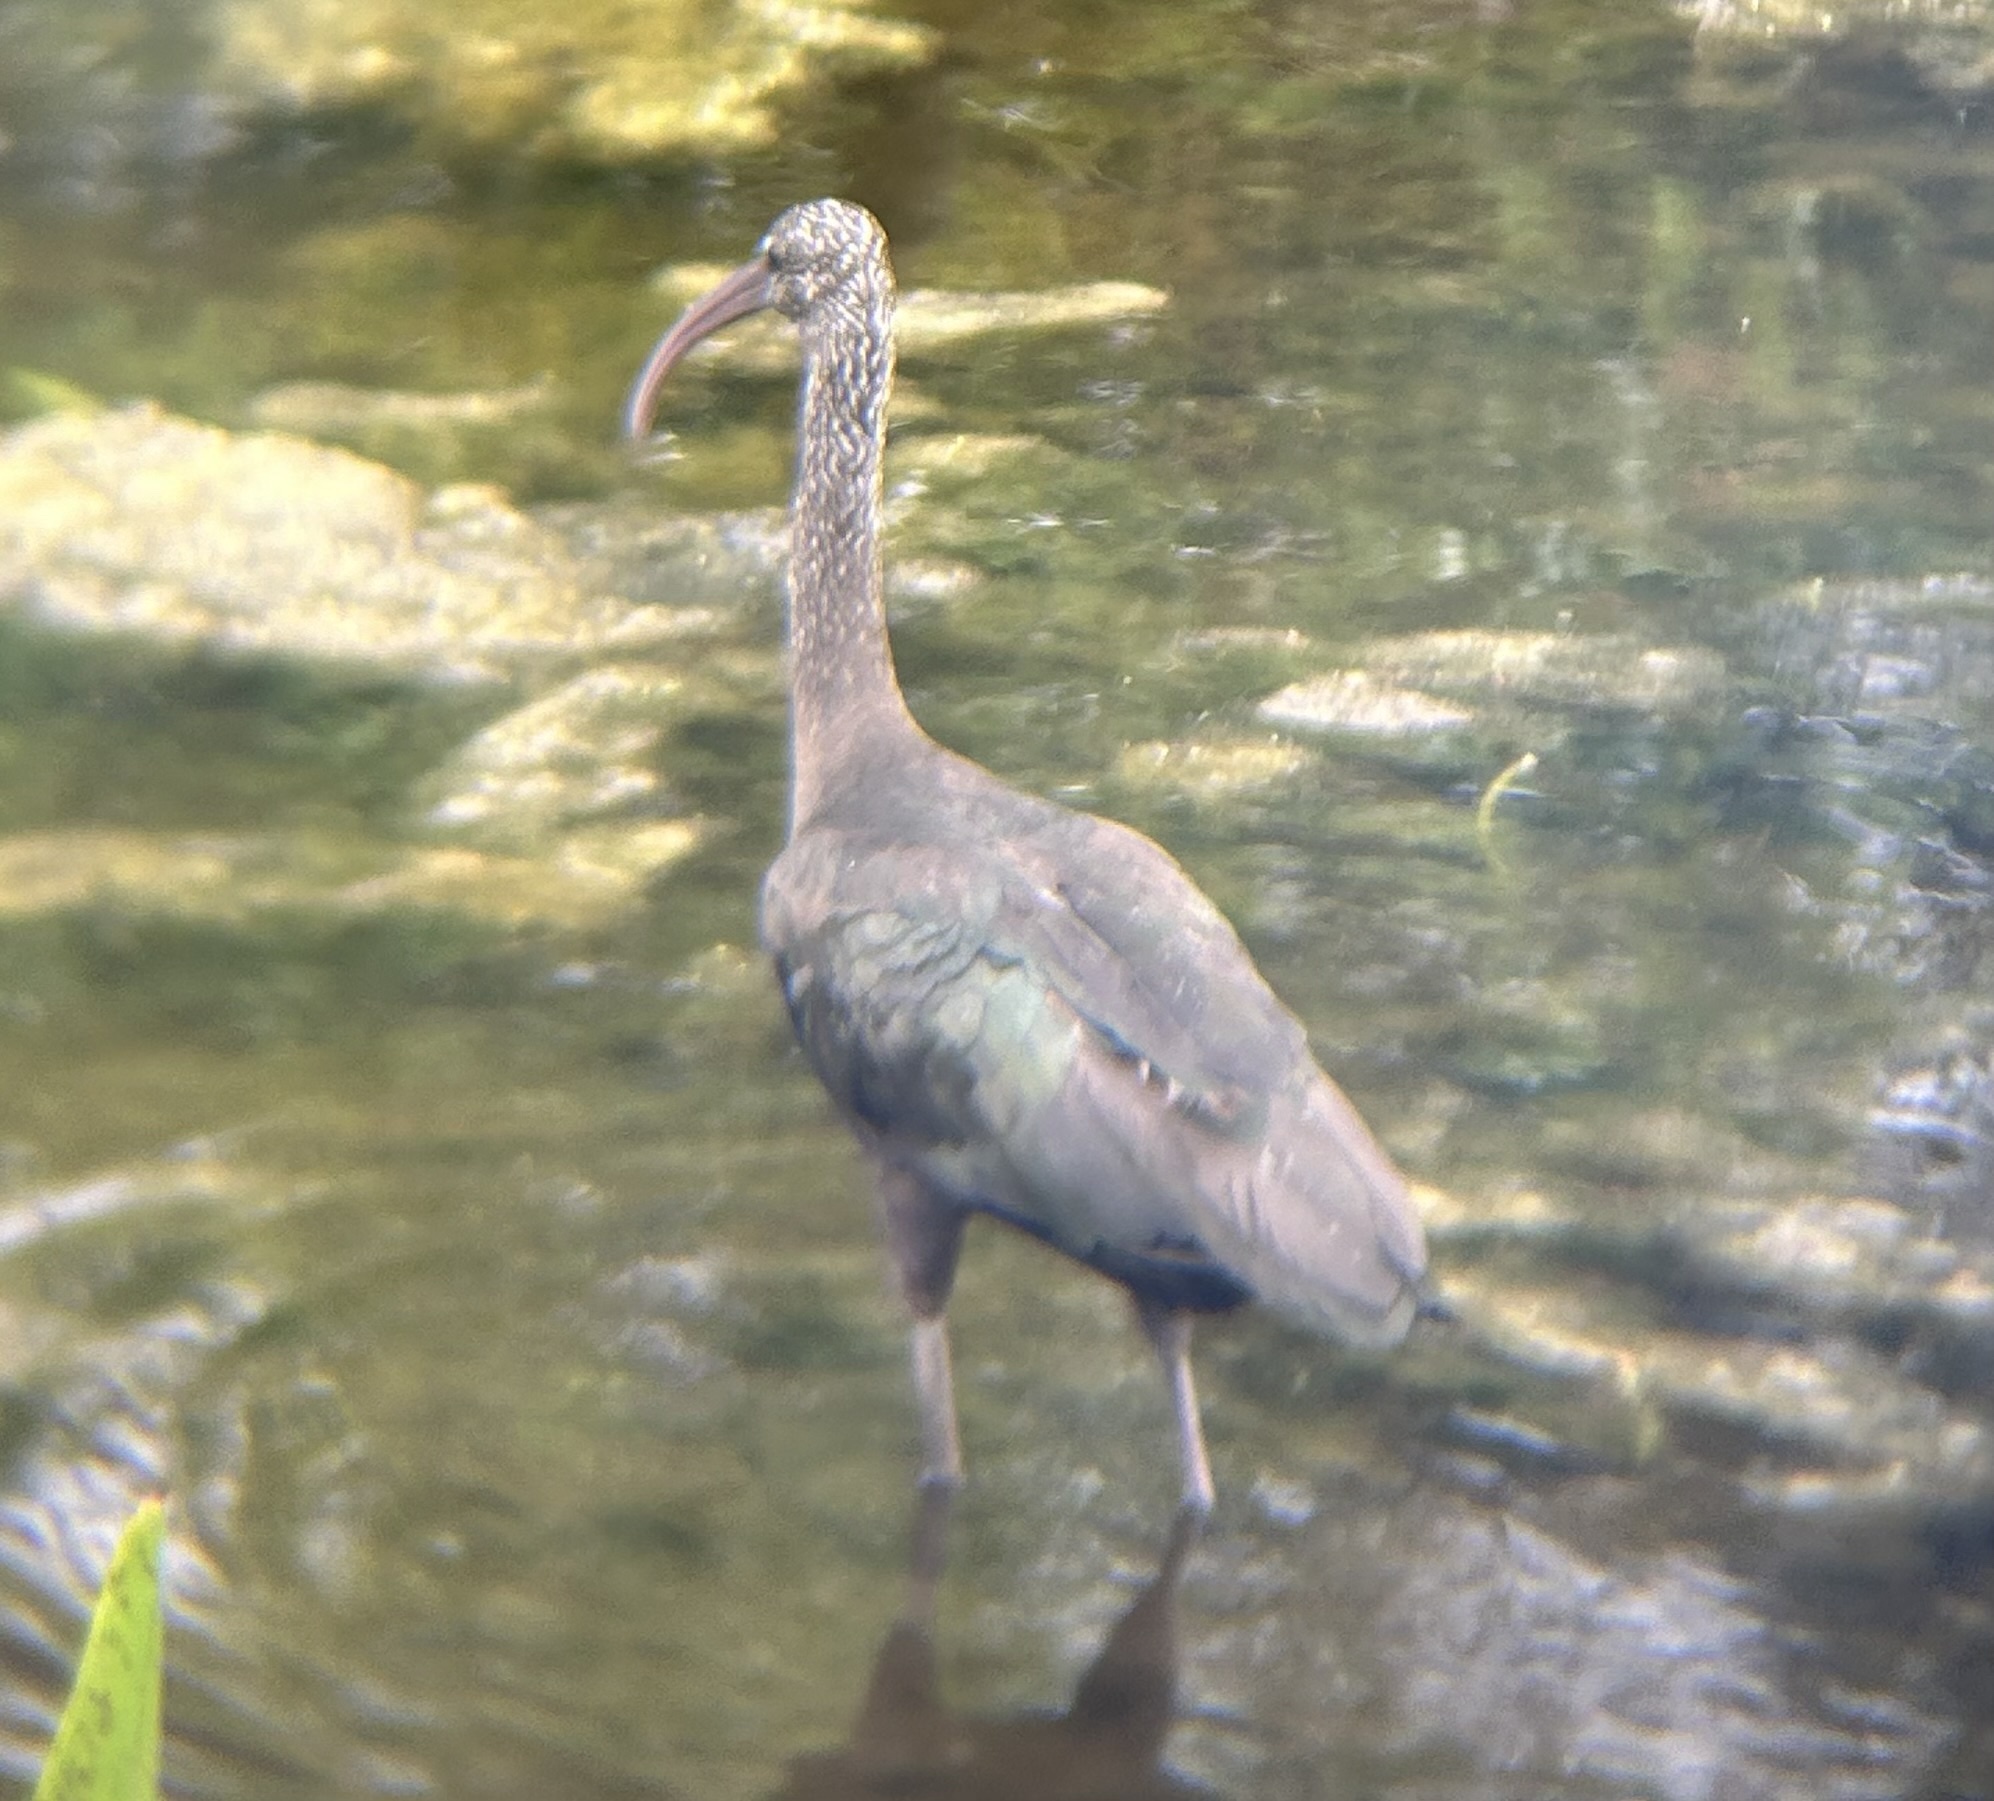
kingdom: Animalia
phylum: Chordata
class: Aves
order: Pelecaniformes
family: Threskiornithidae
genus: Plegadis
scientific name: Plegadis falcinellus
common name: Glossy ibis
